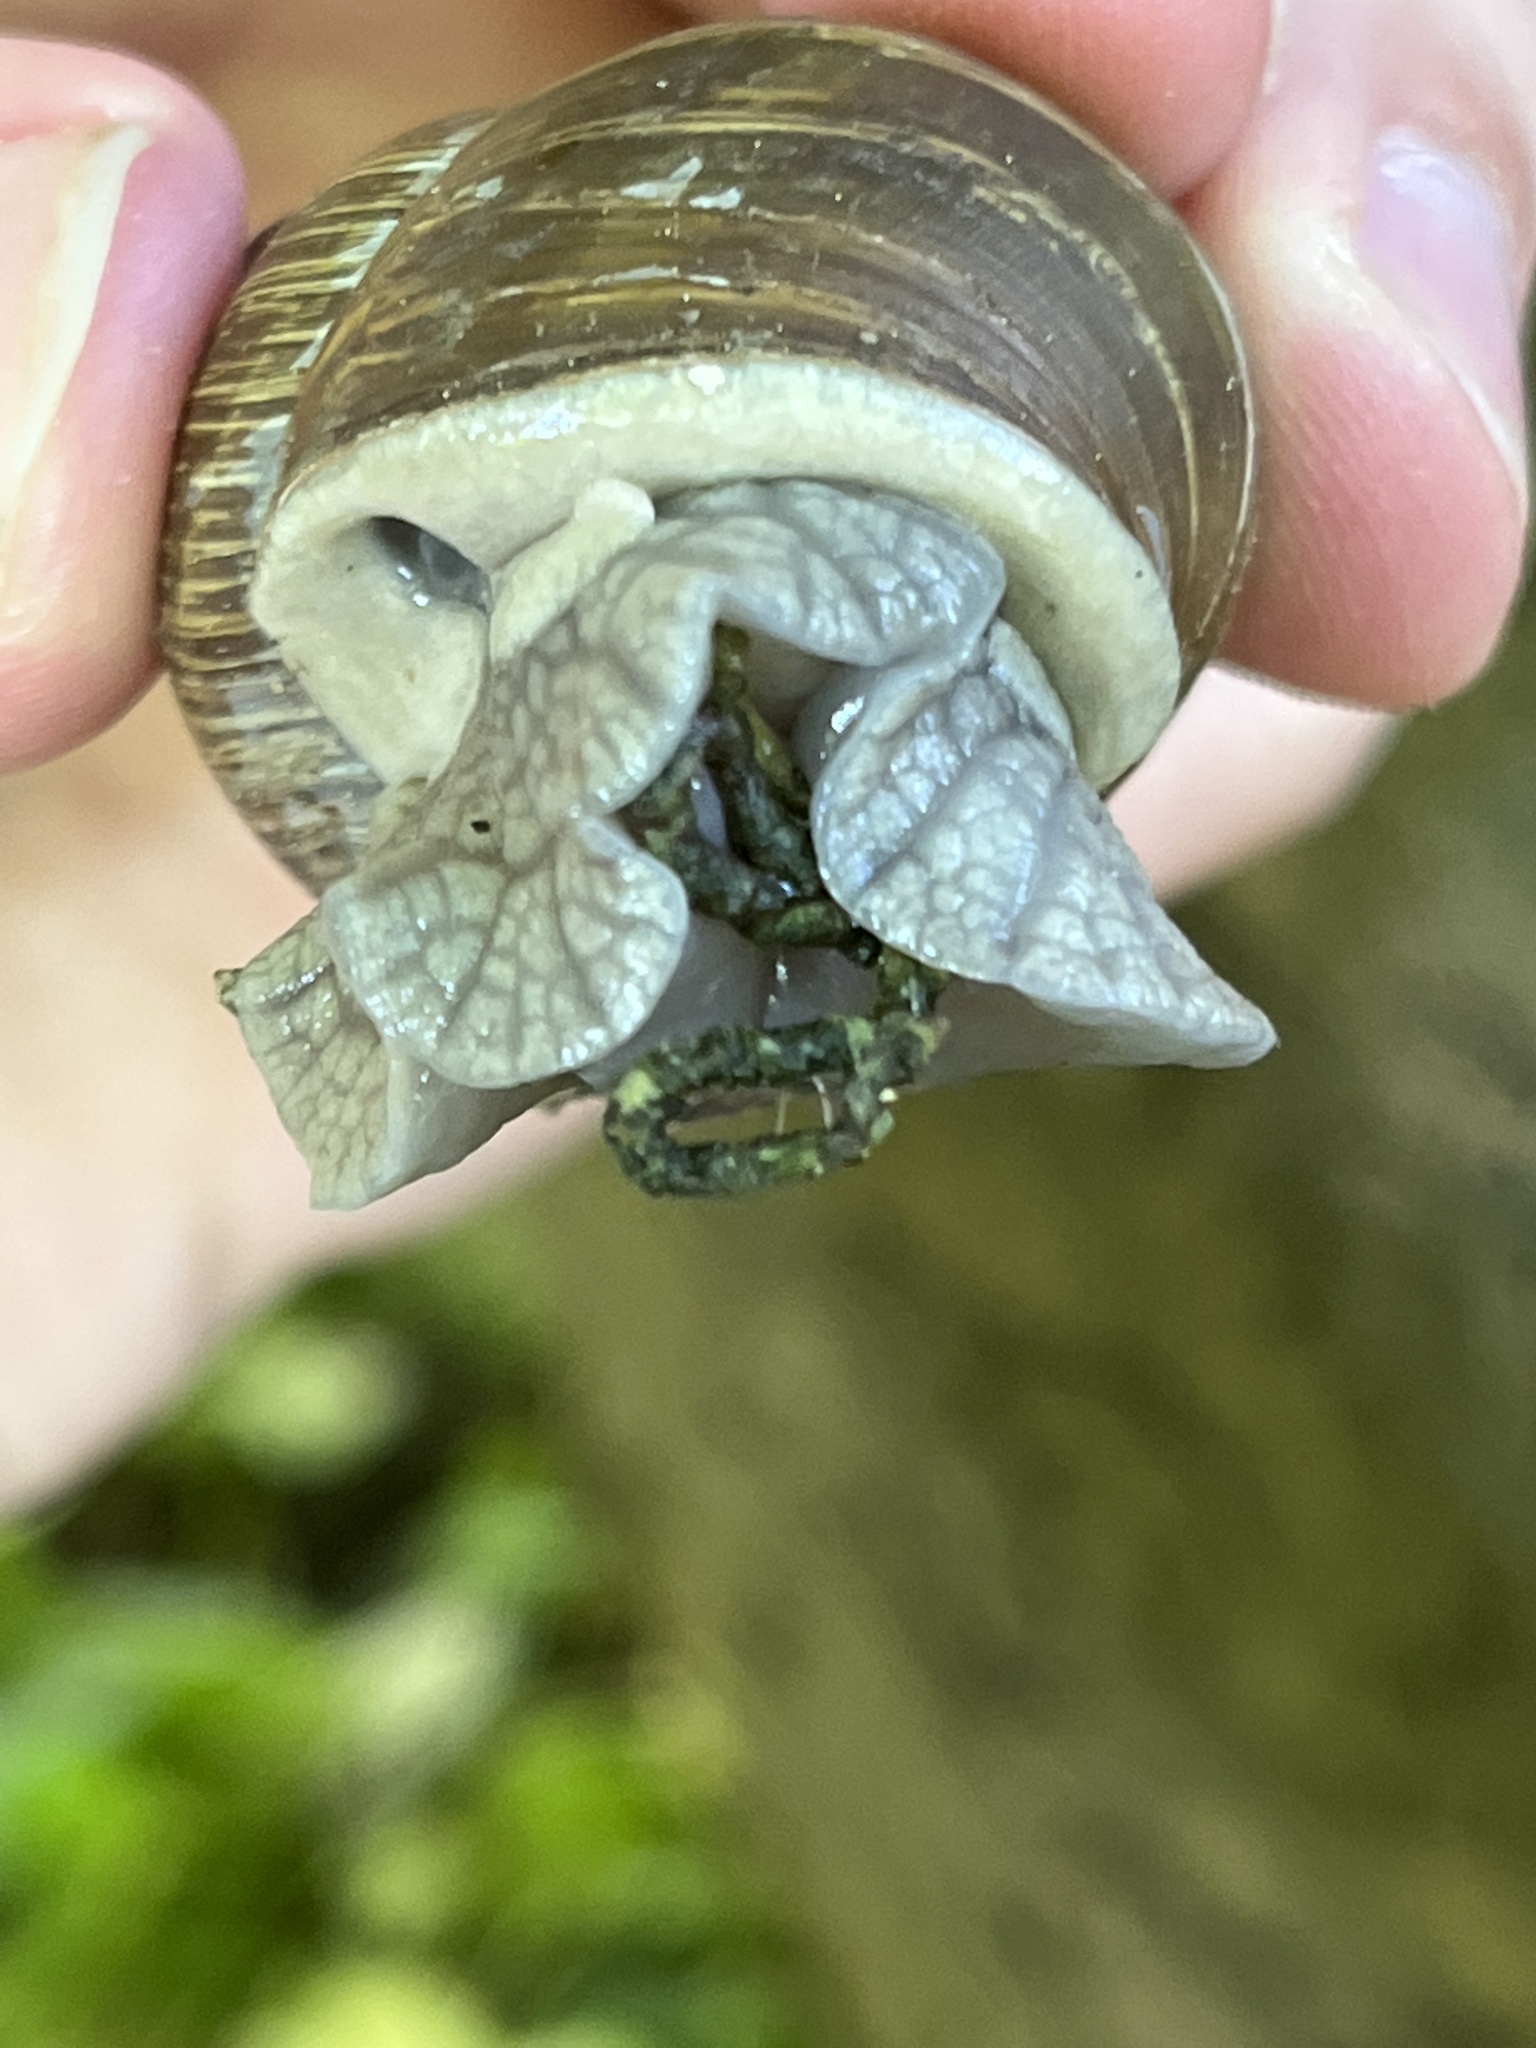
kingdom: Animalia
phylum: Mollusca
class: Gastropoda
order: Stylommatophora
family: Helicidae
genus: Cornu
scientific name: Cornu aspersum
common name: Brown garden snail
